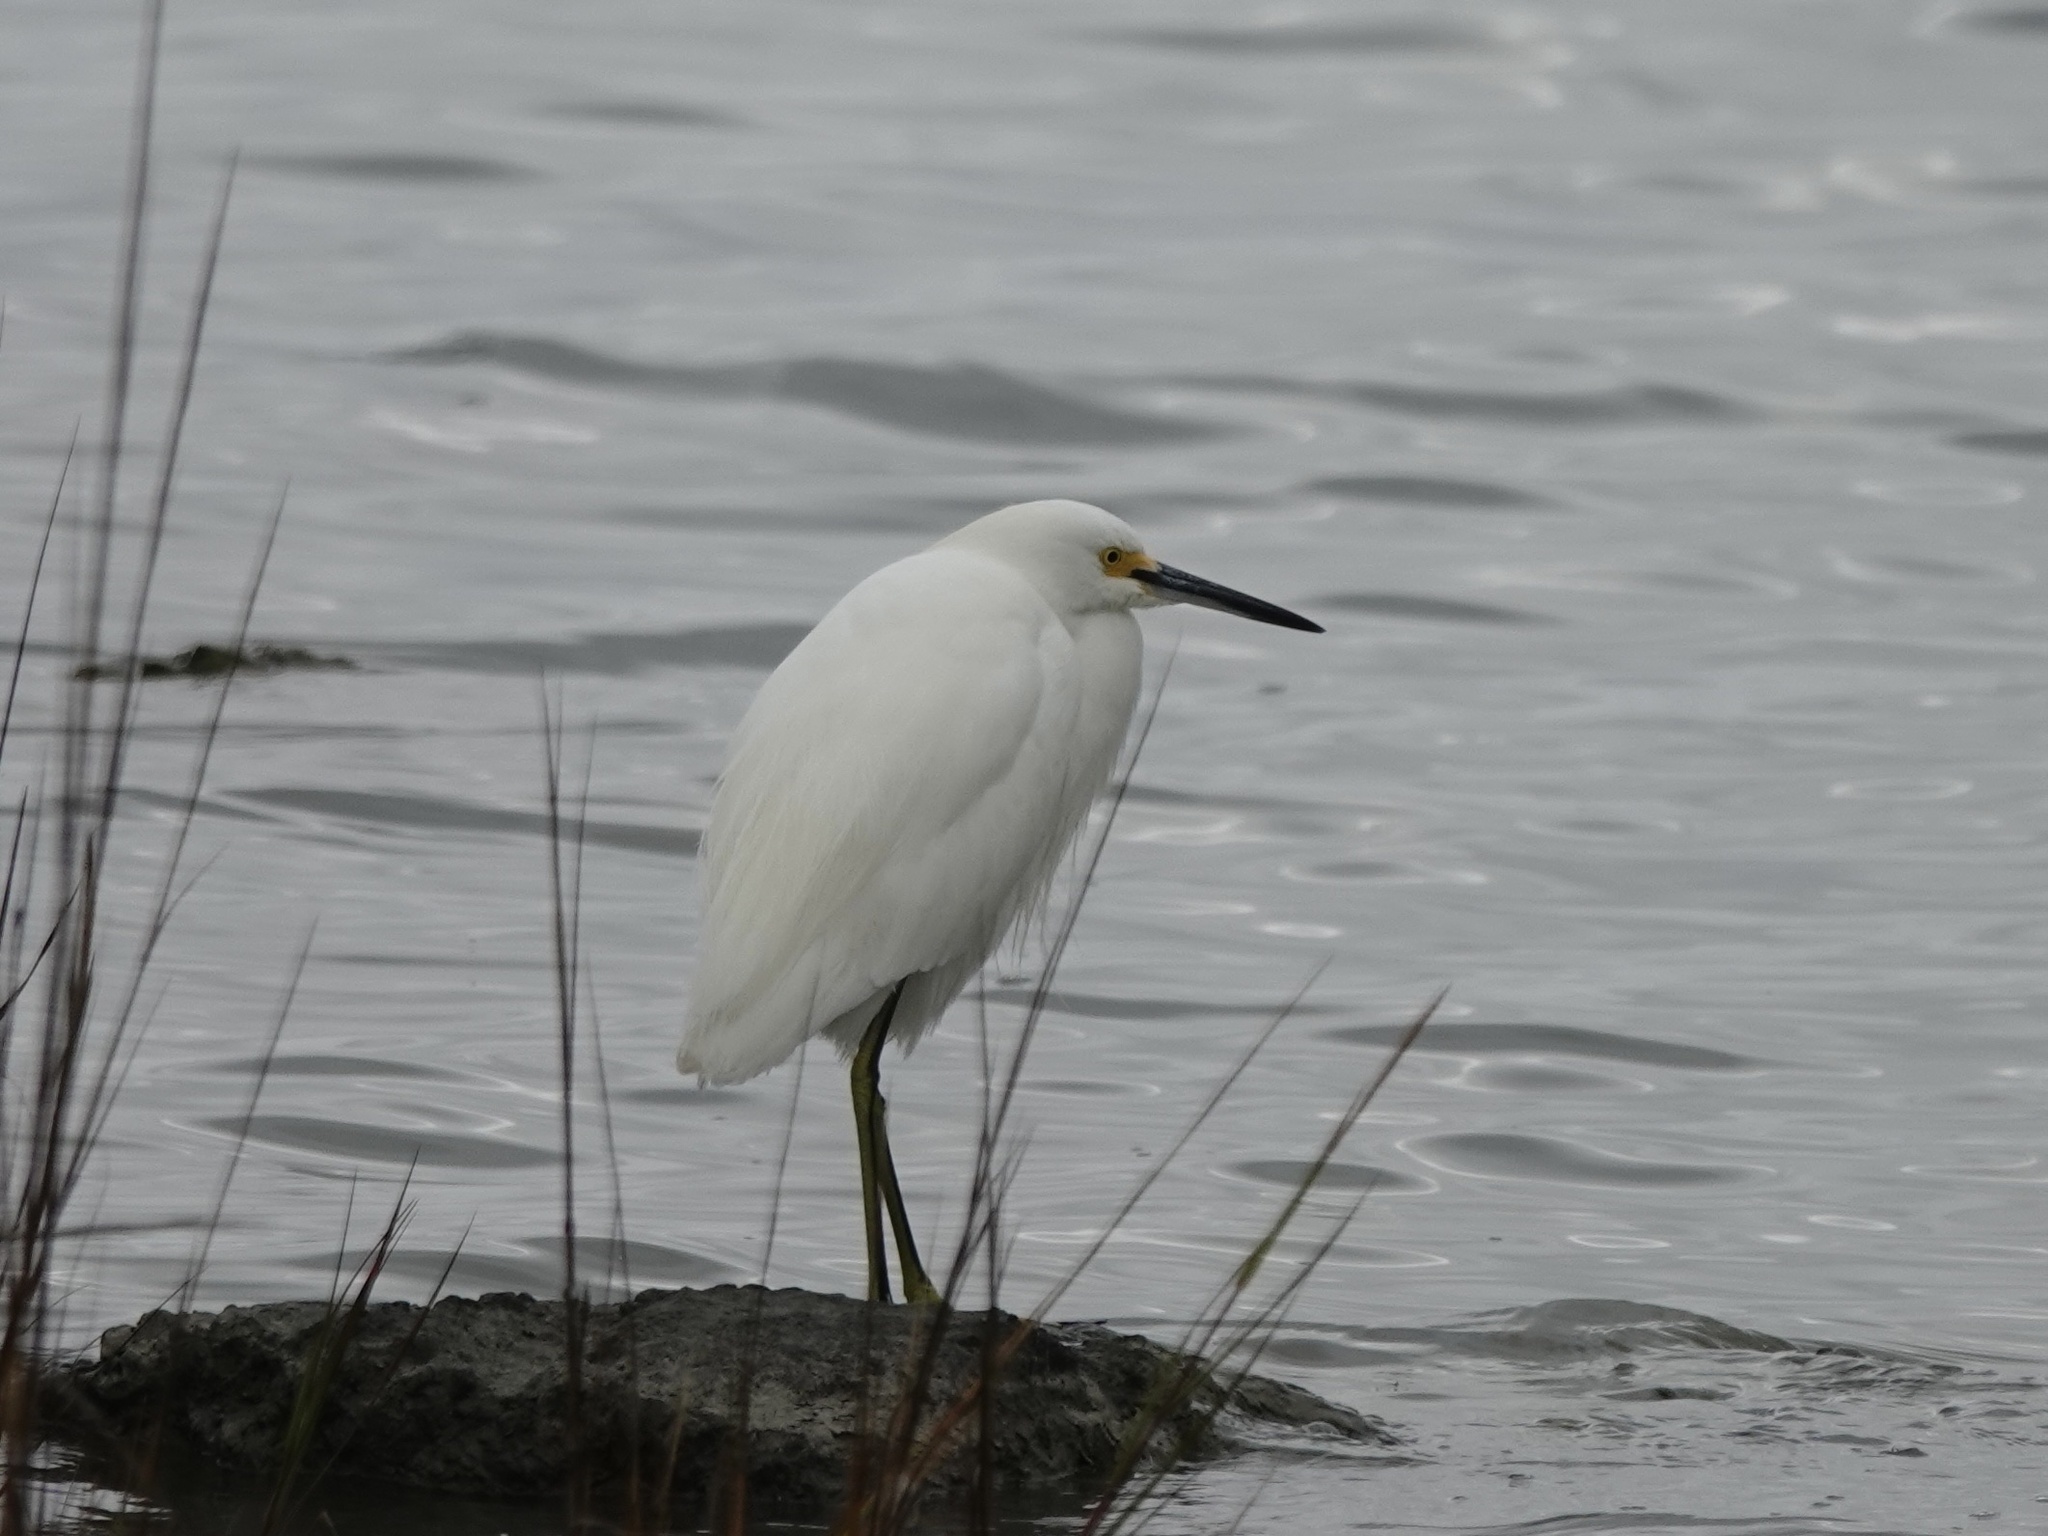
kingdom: Animalia
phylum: Chordata
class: Aves
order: Pelecaniformes
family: Ardeidae
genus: Egretta
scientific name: Egretta thula
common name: Snowy egret
